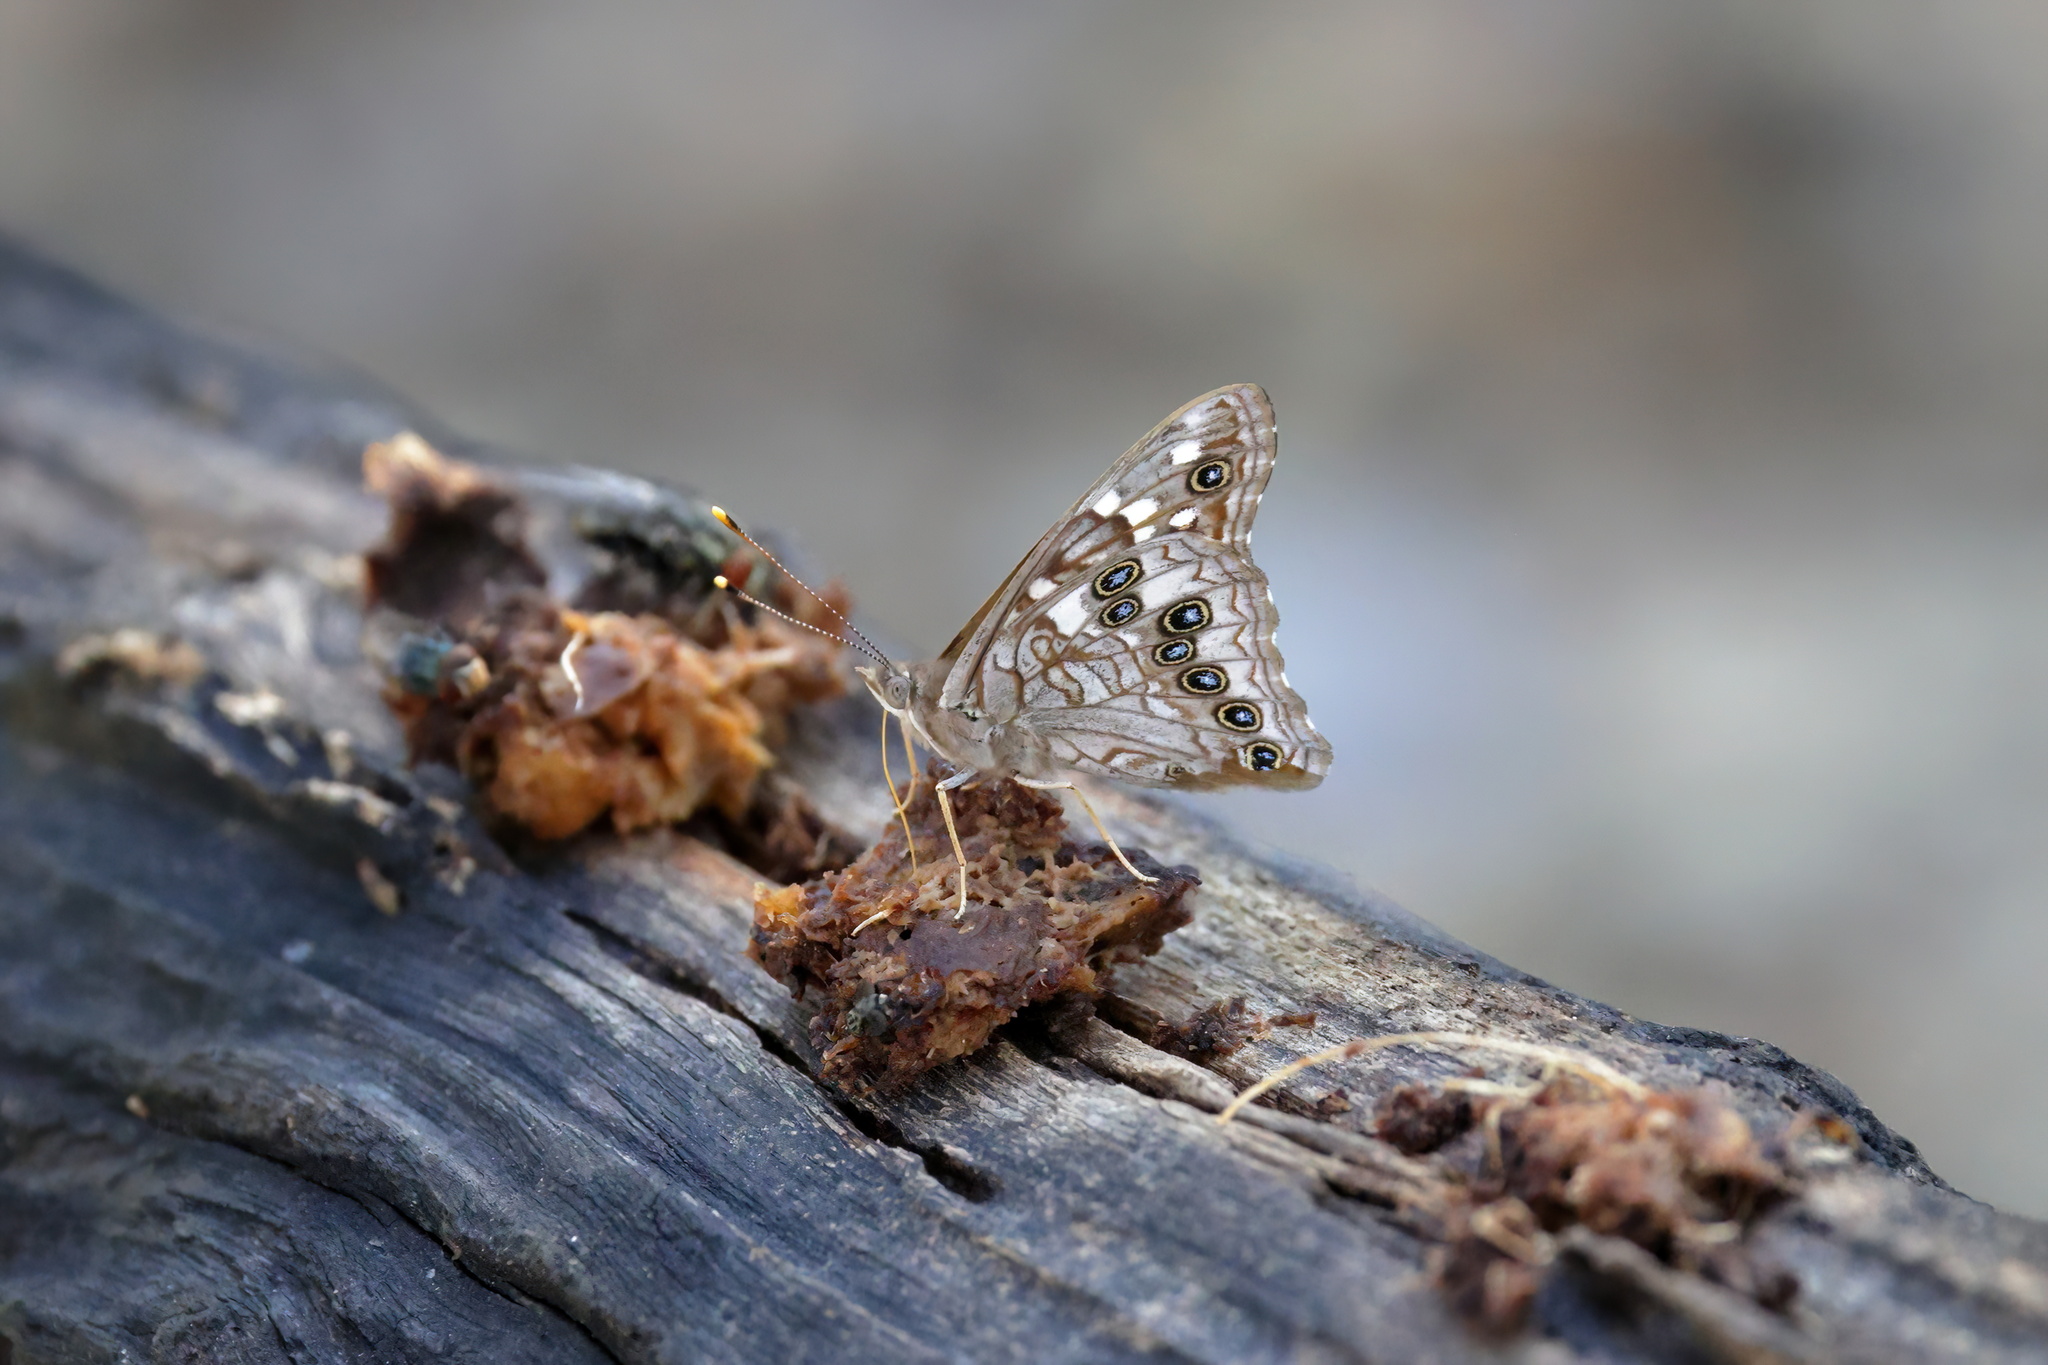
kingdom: Animalia
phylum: Arthropoda
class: Insecta
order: Lepidoptera
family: Nymphalidae
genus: Asterocampa
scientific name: Asterocampa leilia
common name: Empress leilia
